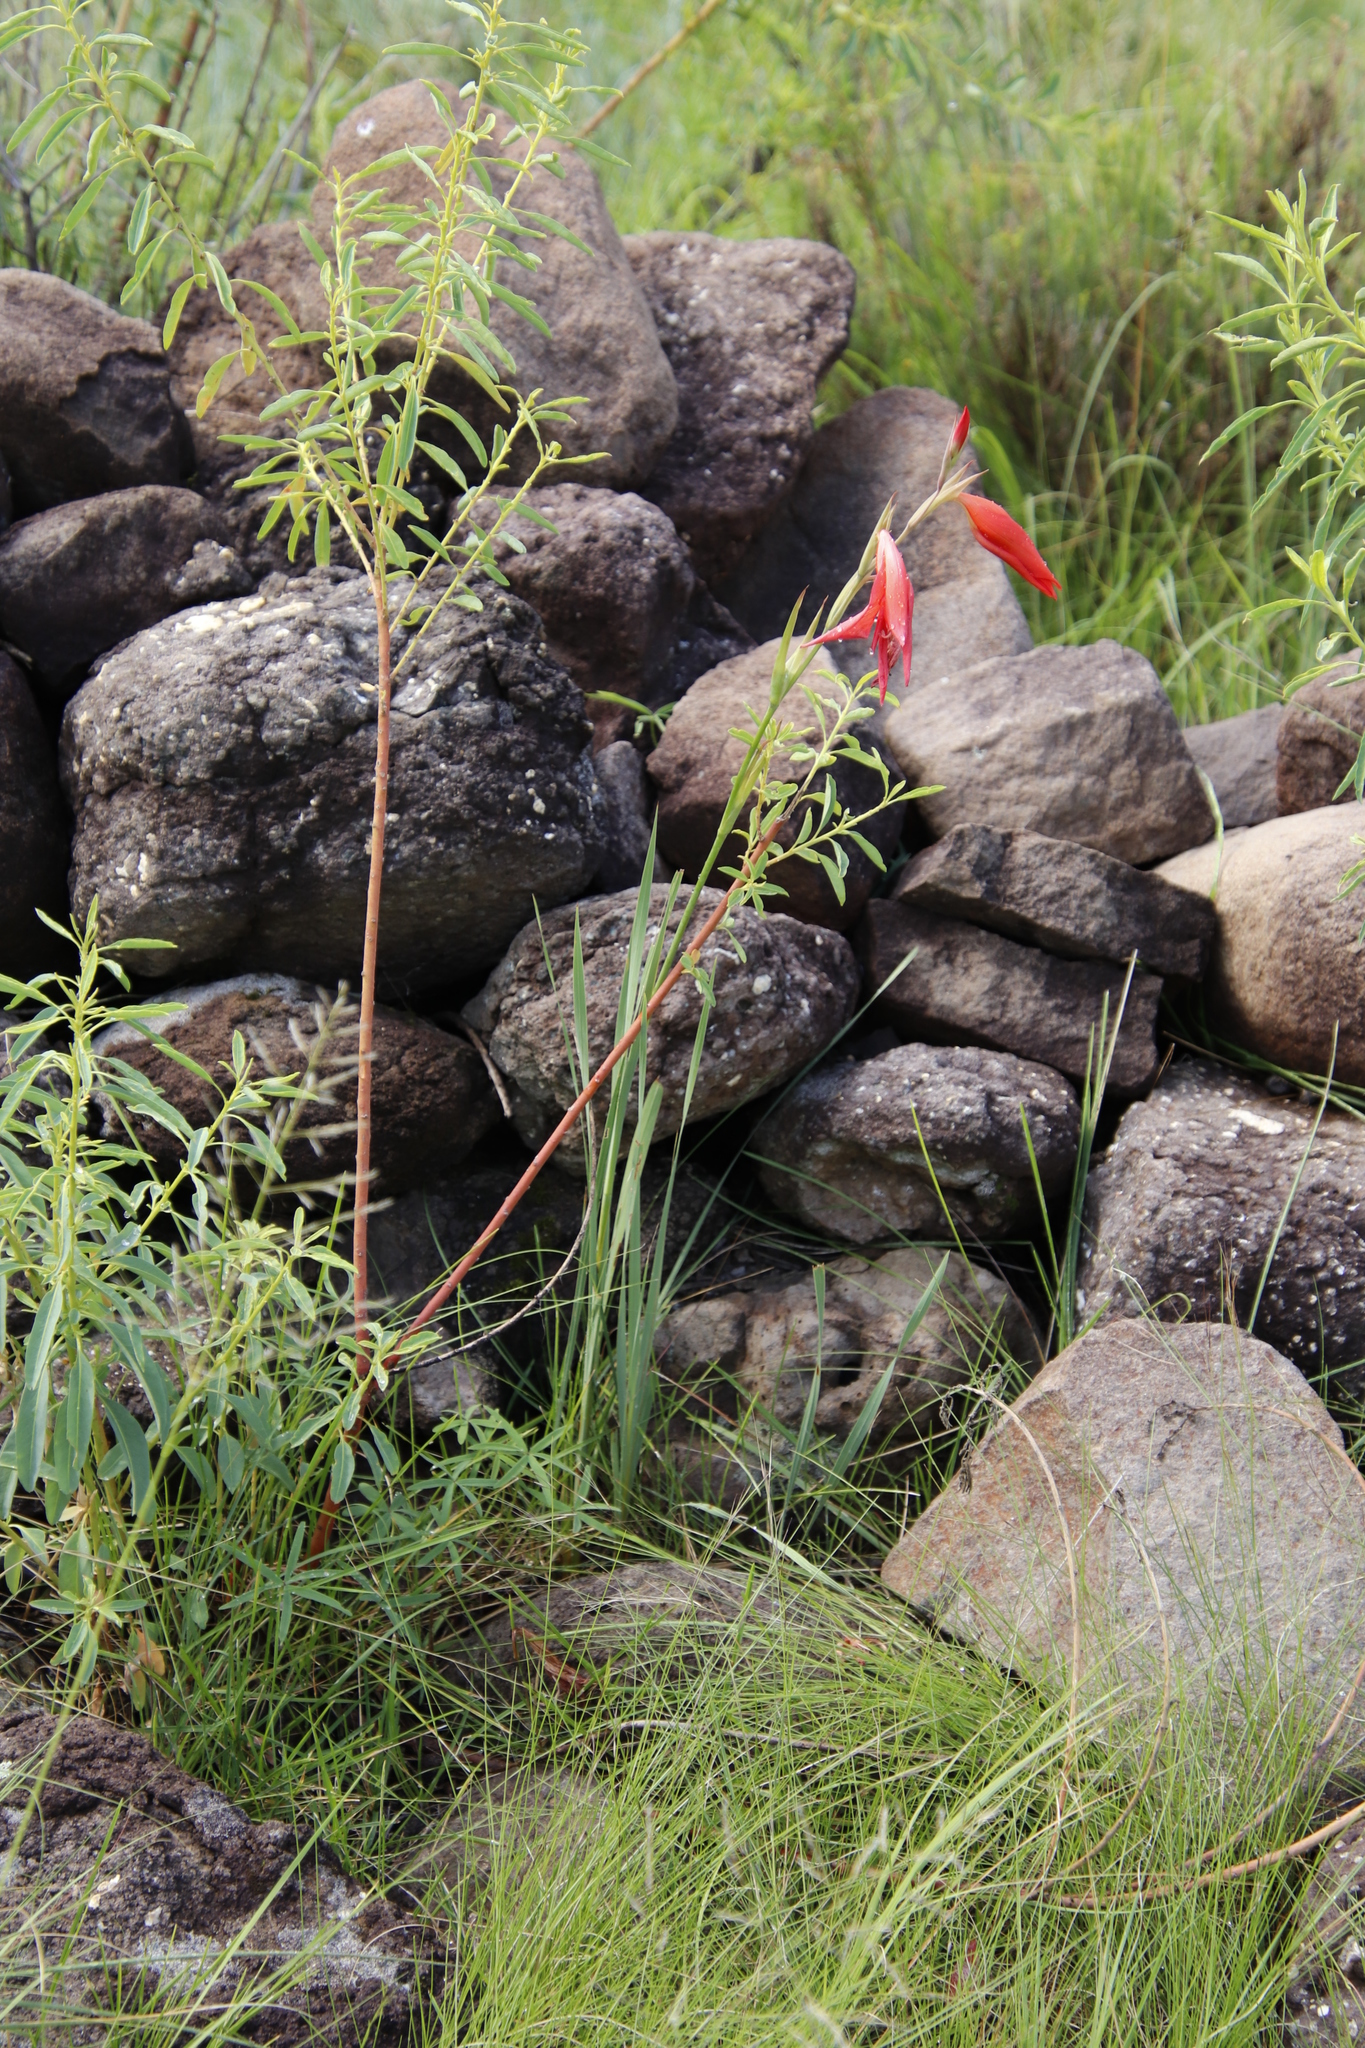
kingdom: Plantae
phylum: Tracheophyta
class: Liliopsida
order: Asparagales
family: Iridaceae
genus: Gladiolus
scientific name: Gladiolus saundersii
